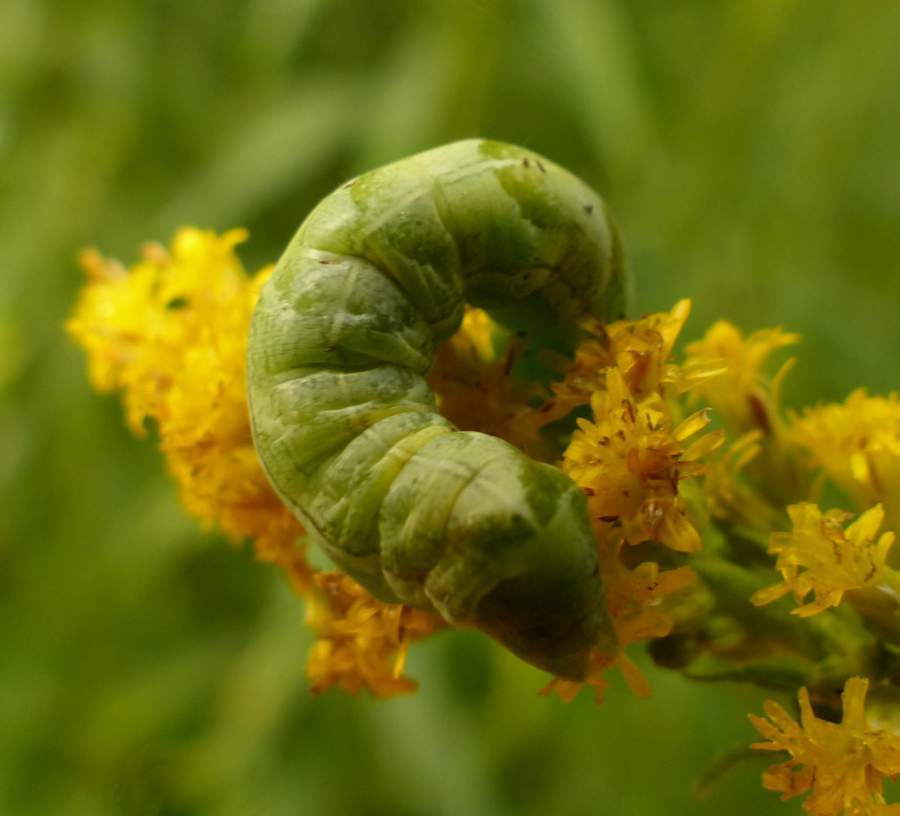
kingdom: Animalia
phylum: Arthropoda
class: Insecta
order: Lepidoptera
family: Noctuidae
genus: Melanchra
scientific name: Melanchra adjuncta
